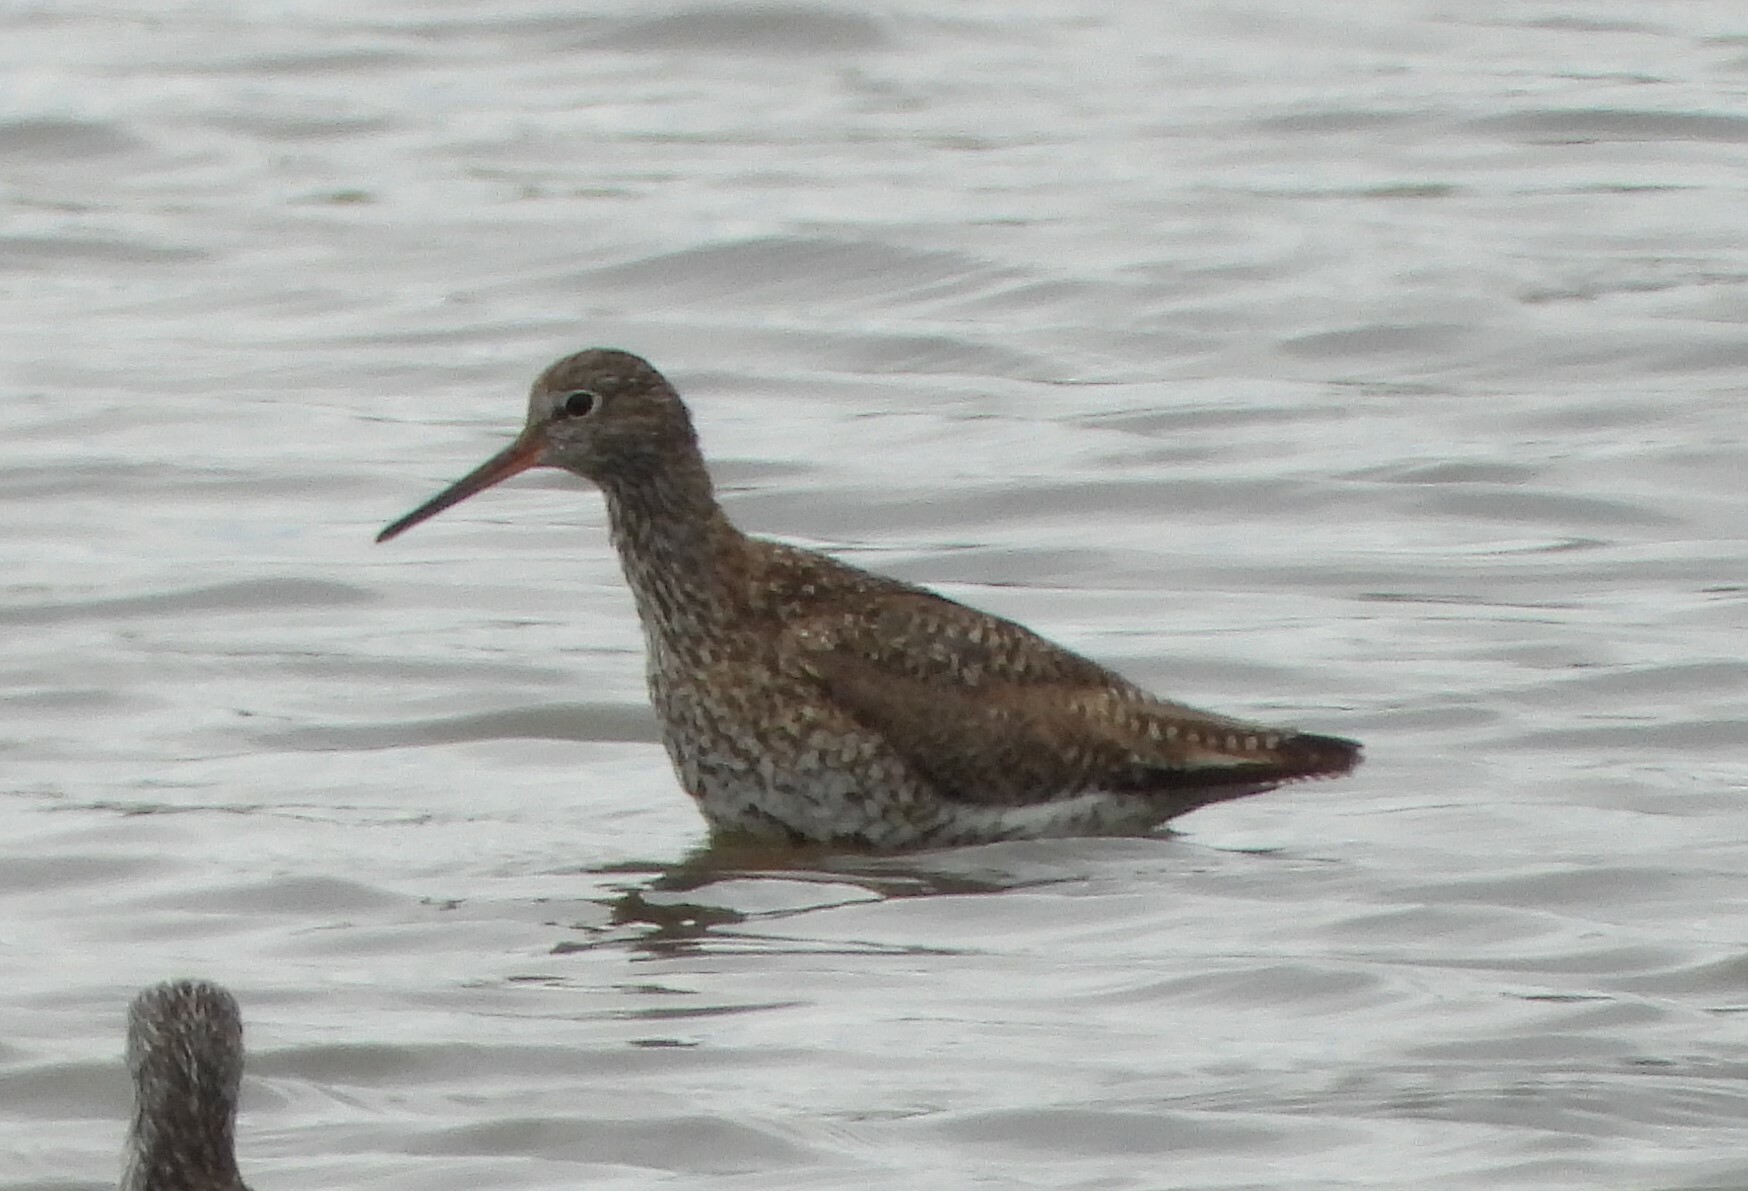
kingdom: Animalia
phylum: Chordata
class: Aves
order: Charadriiformes
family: Scolopacidae
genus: Tringa
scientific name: Tringa totanus
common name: Common redshank
